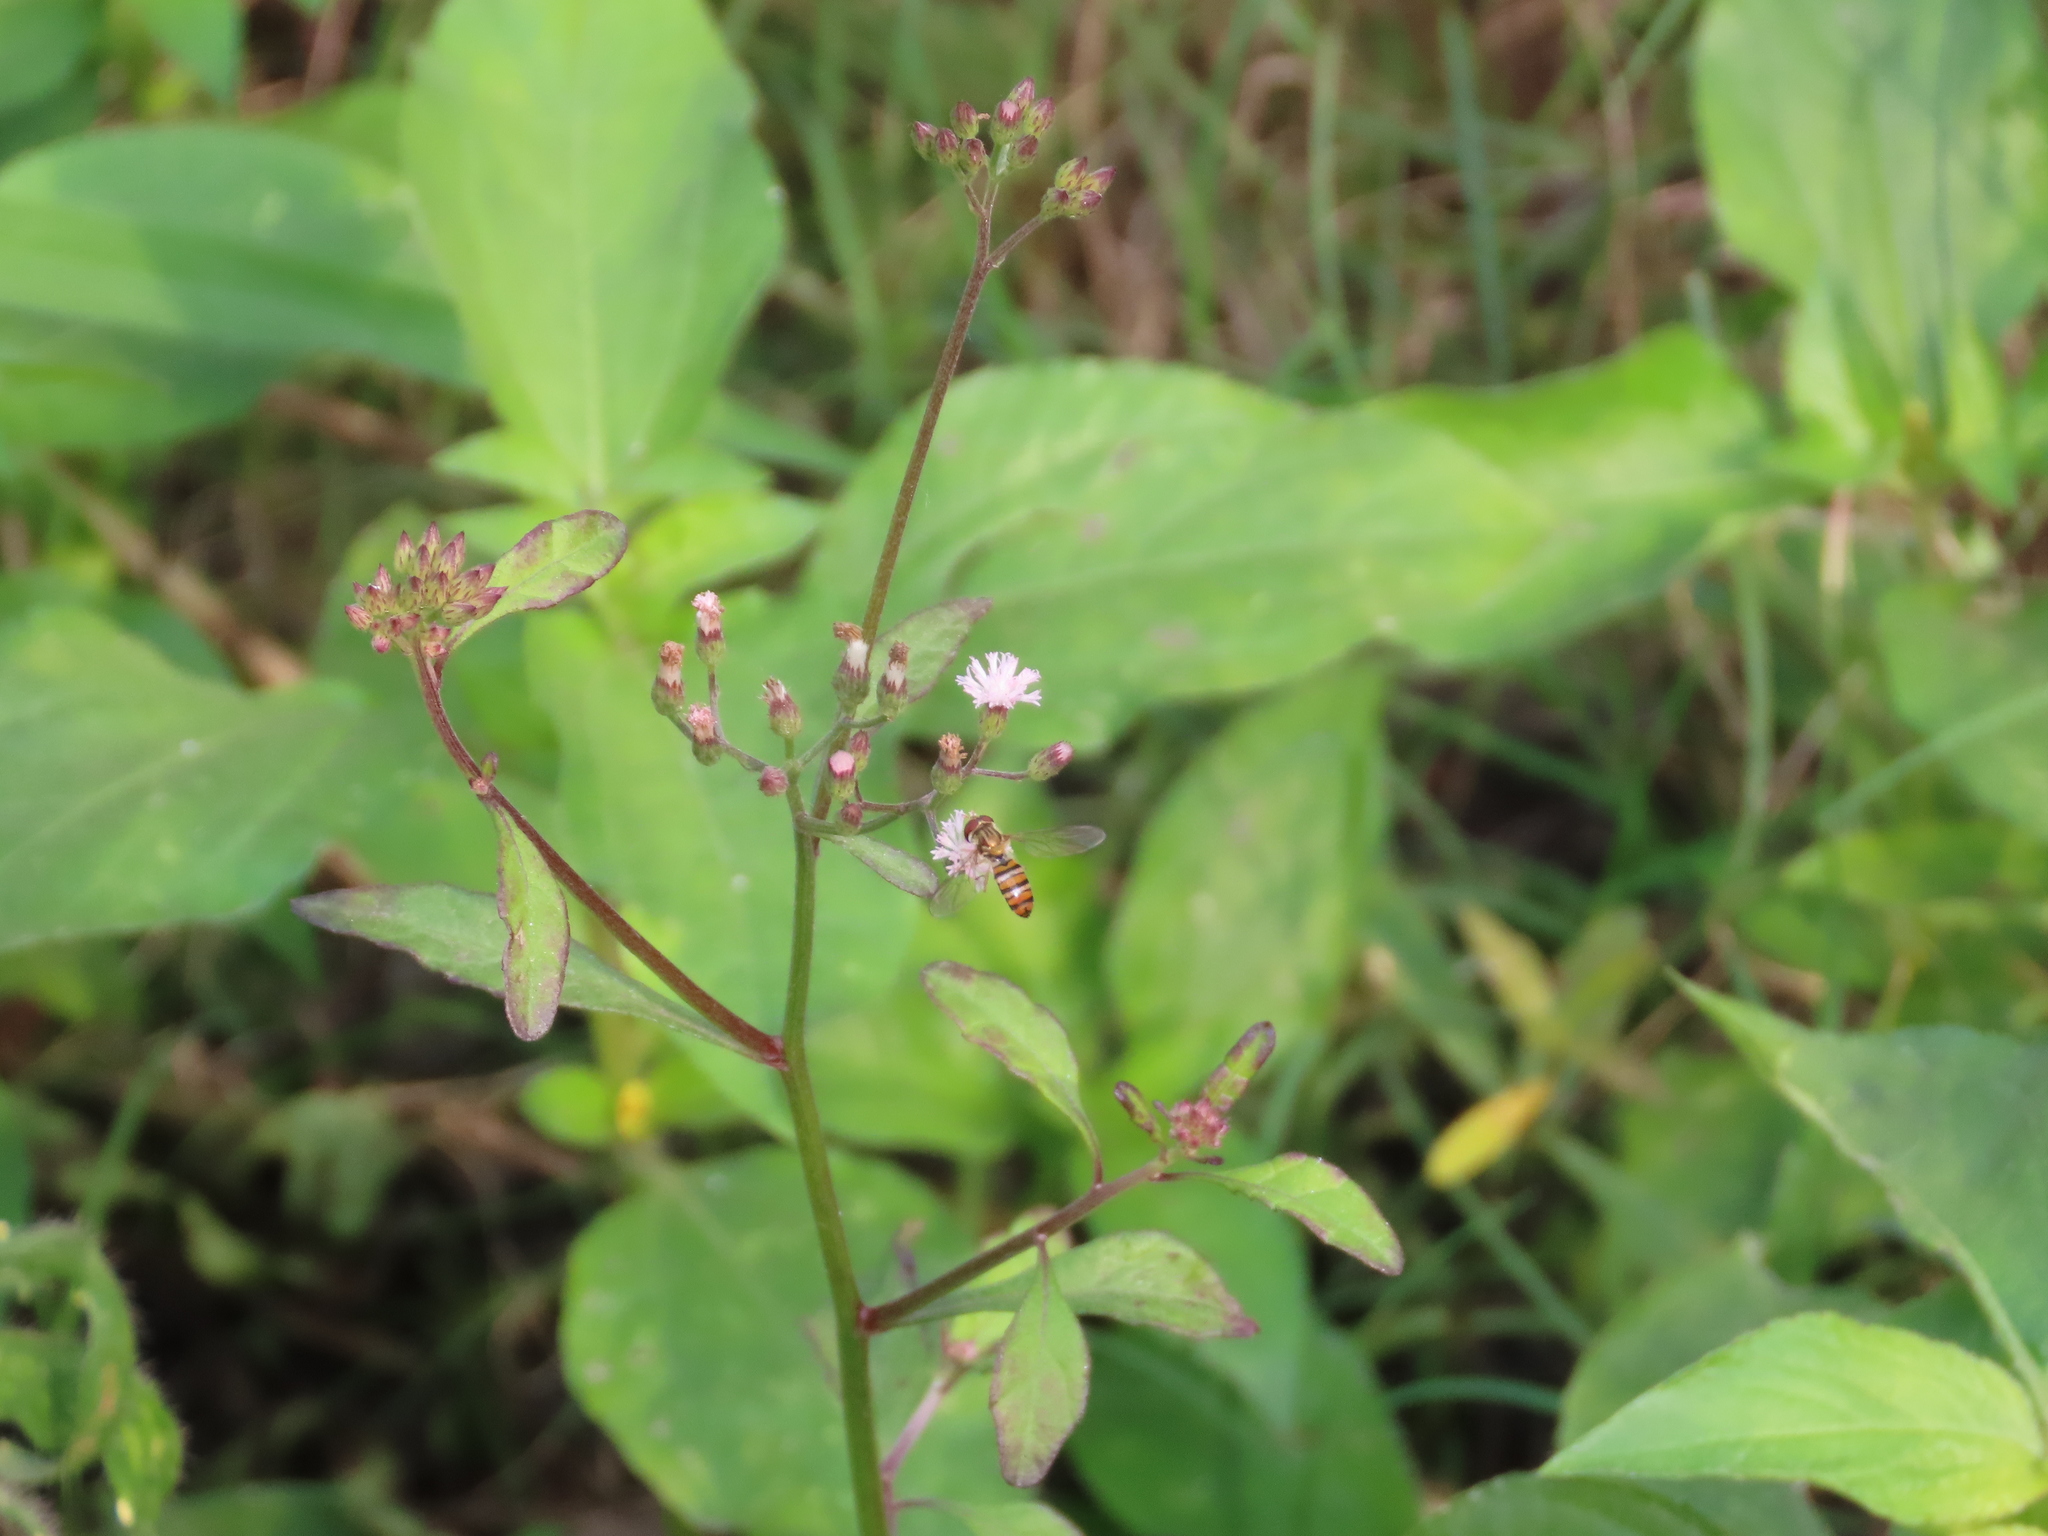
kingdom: Plantae
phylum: Tracheophyta
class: Magnoliopsida
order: Asterales
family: Asteraceae
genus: Cyanthillium
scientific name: Cyanthillium cinereum
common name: Little ironweed
